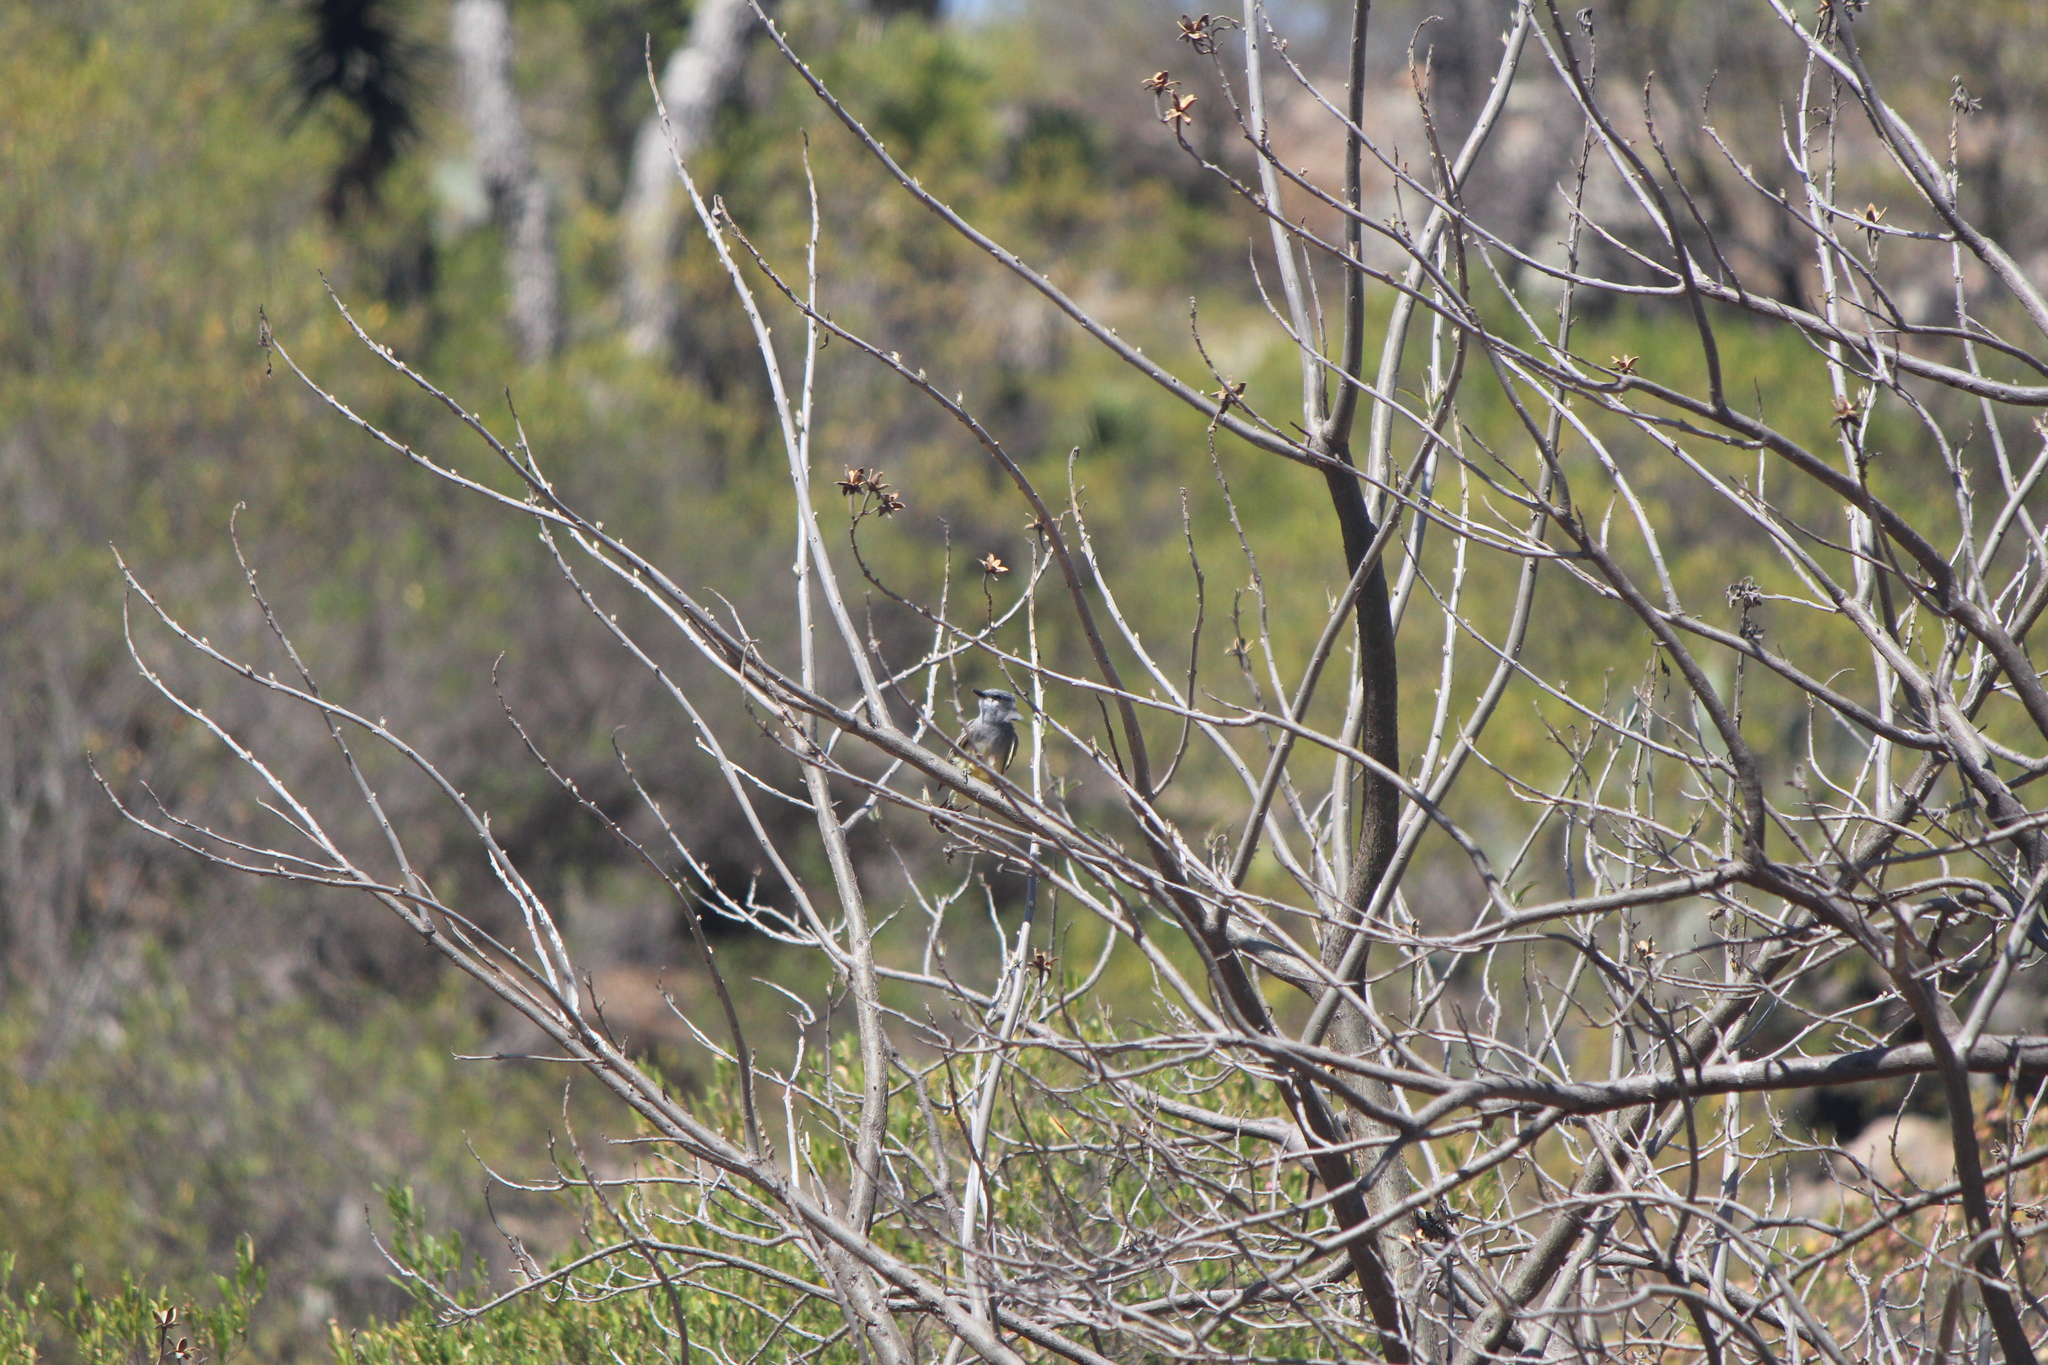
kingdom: Animalia
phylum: Chordata
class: Aves
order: Passeriformes
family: Tyrannidae
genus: Tyrannus
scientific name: Tyrannus vociferans
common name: Cassin's kingbird
